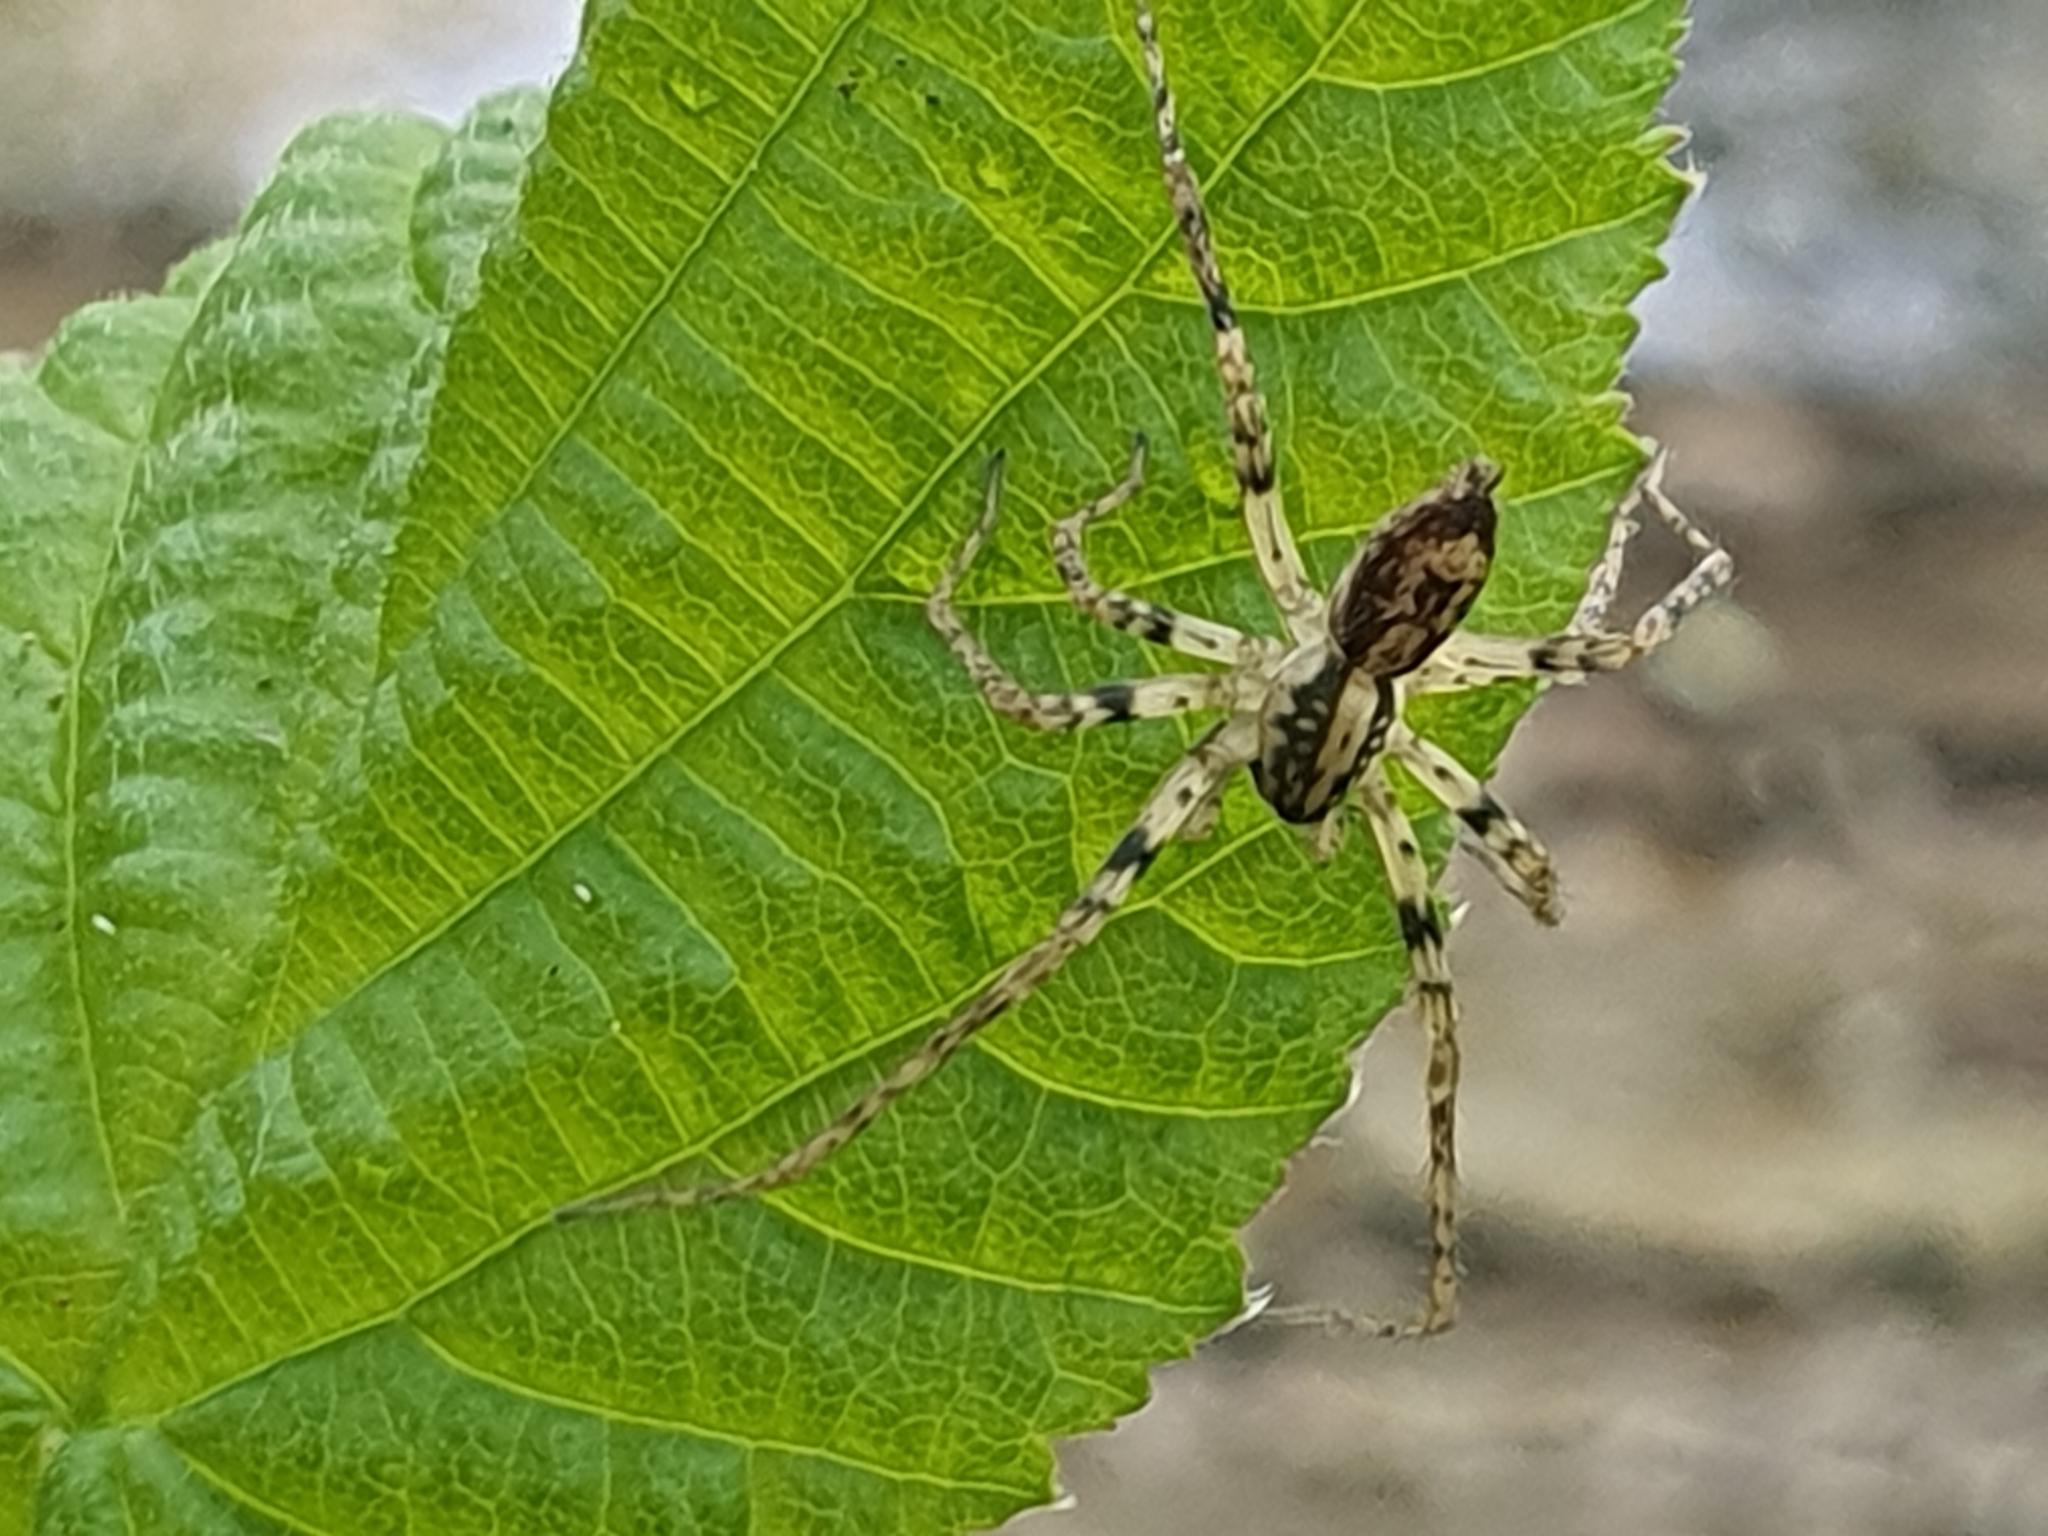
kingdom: Animalia
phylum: Arthropoda
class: Arachnida
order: Araneae
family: Anyphaenidae
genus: Anyphaena
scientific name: Anyphaena accentuata
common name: Buzzing spider
